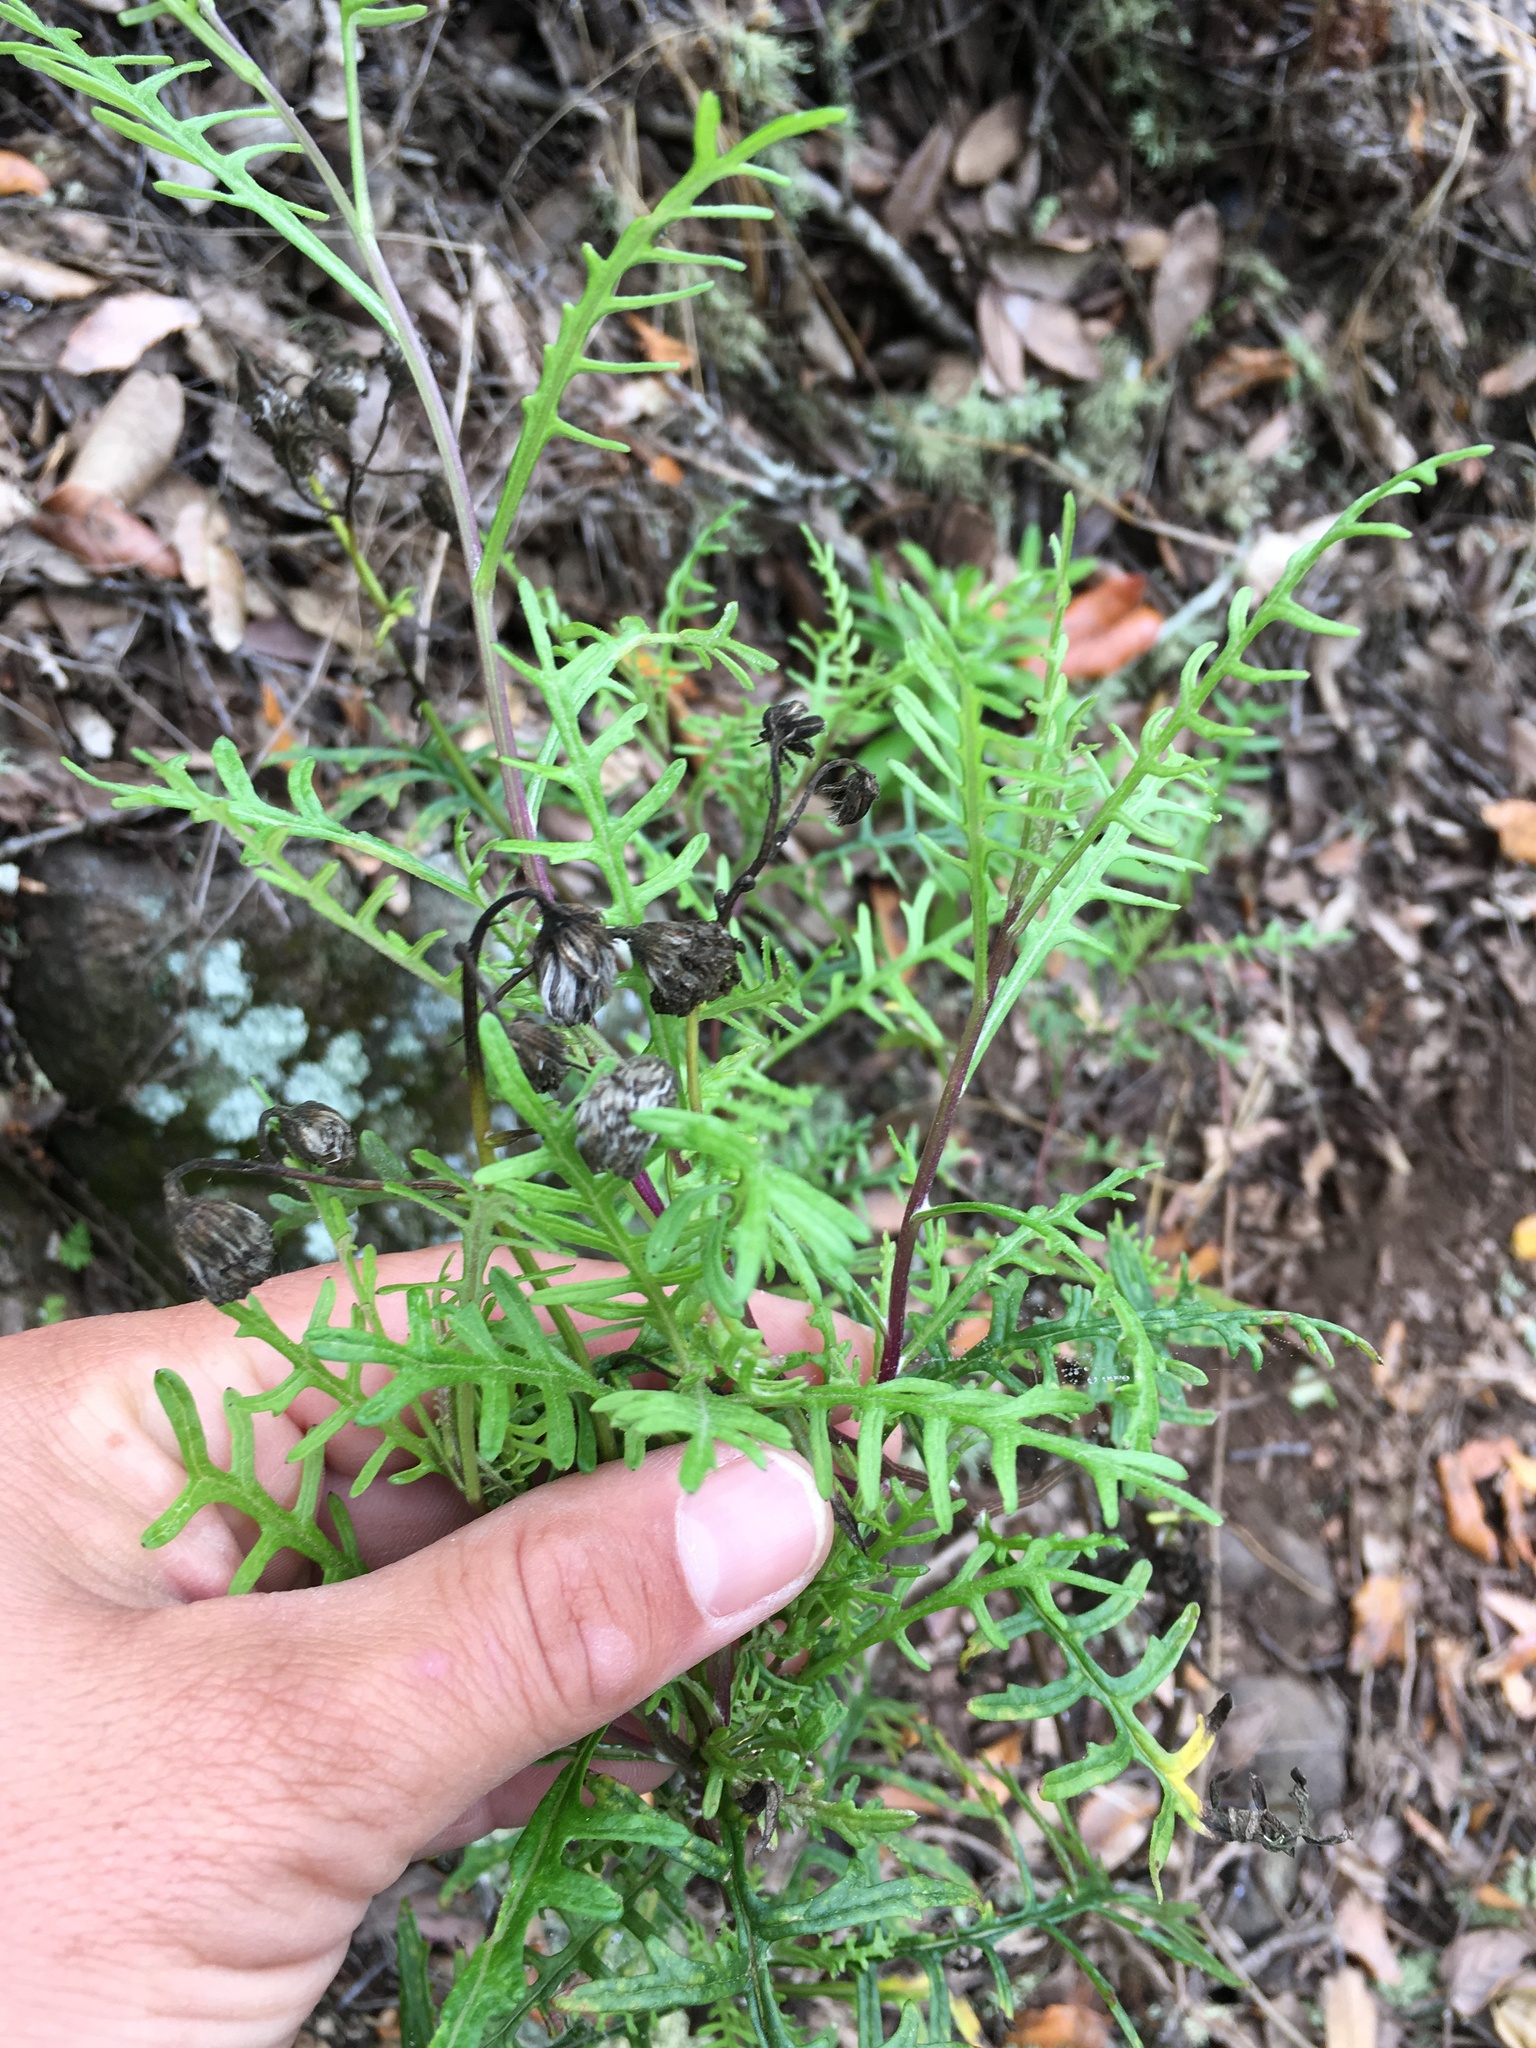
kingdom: Plantae
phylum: Tracheophyta
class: Magnoliopsida
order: Asterales
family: Asteraceae
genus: Senecio
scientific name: Senecio lyonii
